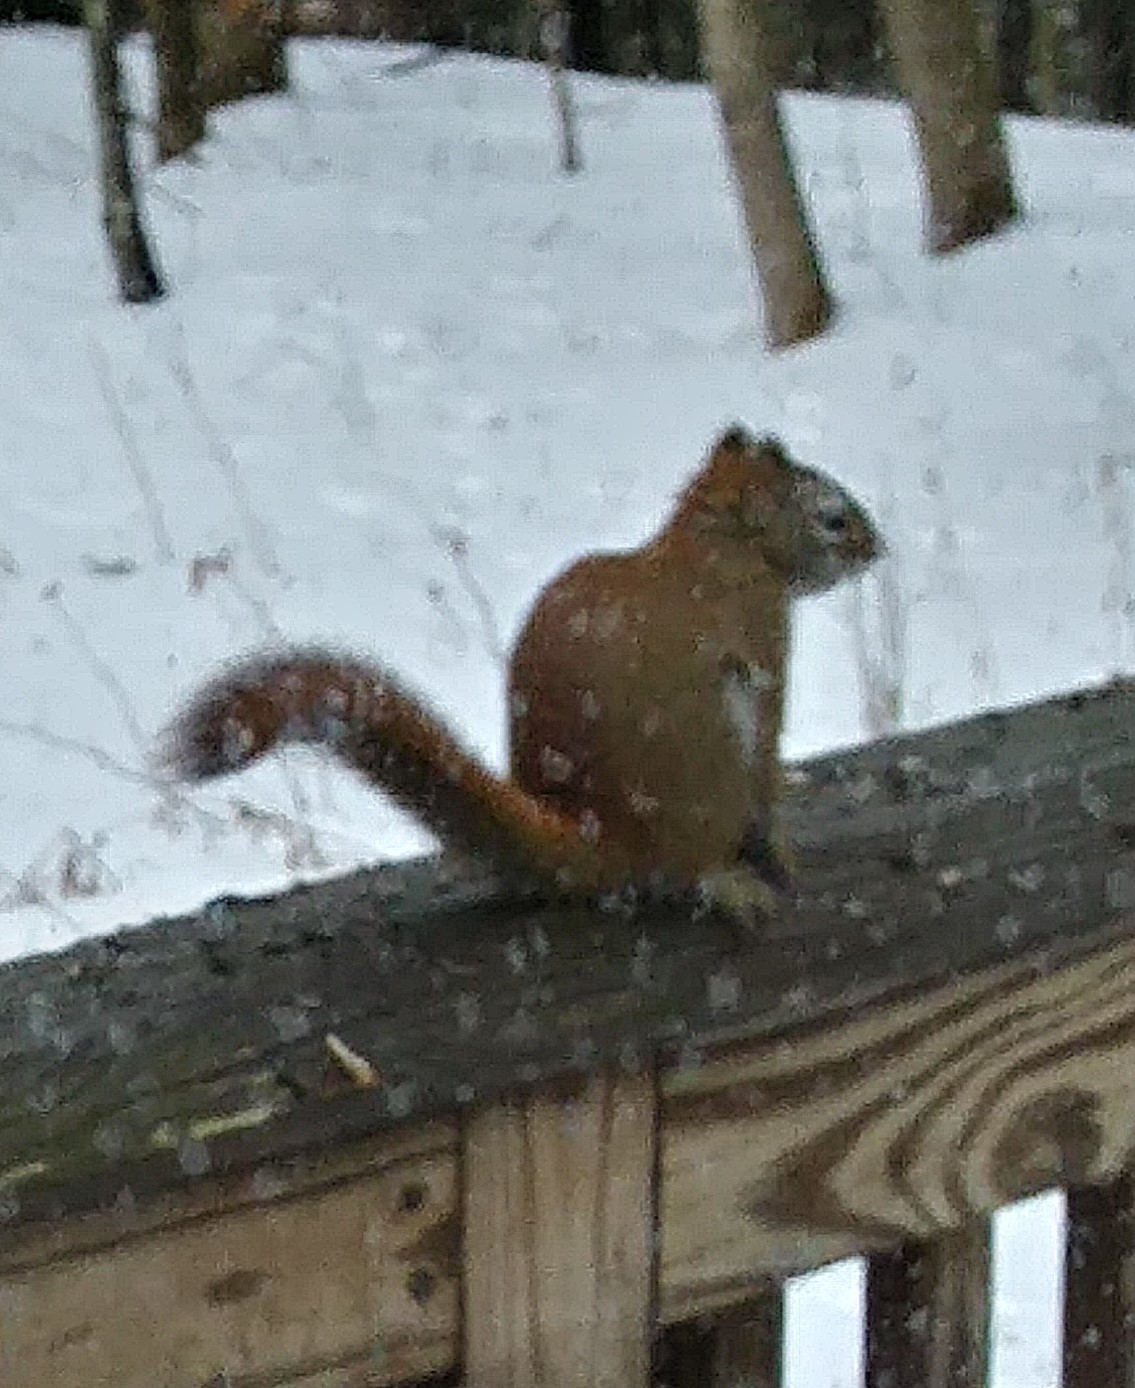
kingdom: Animalia
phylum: Chordata
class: Mammalia
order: Rodentia
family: Sciuridae
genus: Tamiasciurus
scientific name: Tamiasciurus hudsonicus
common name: Red squirrel
